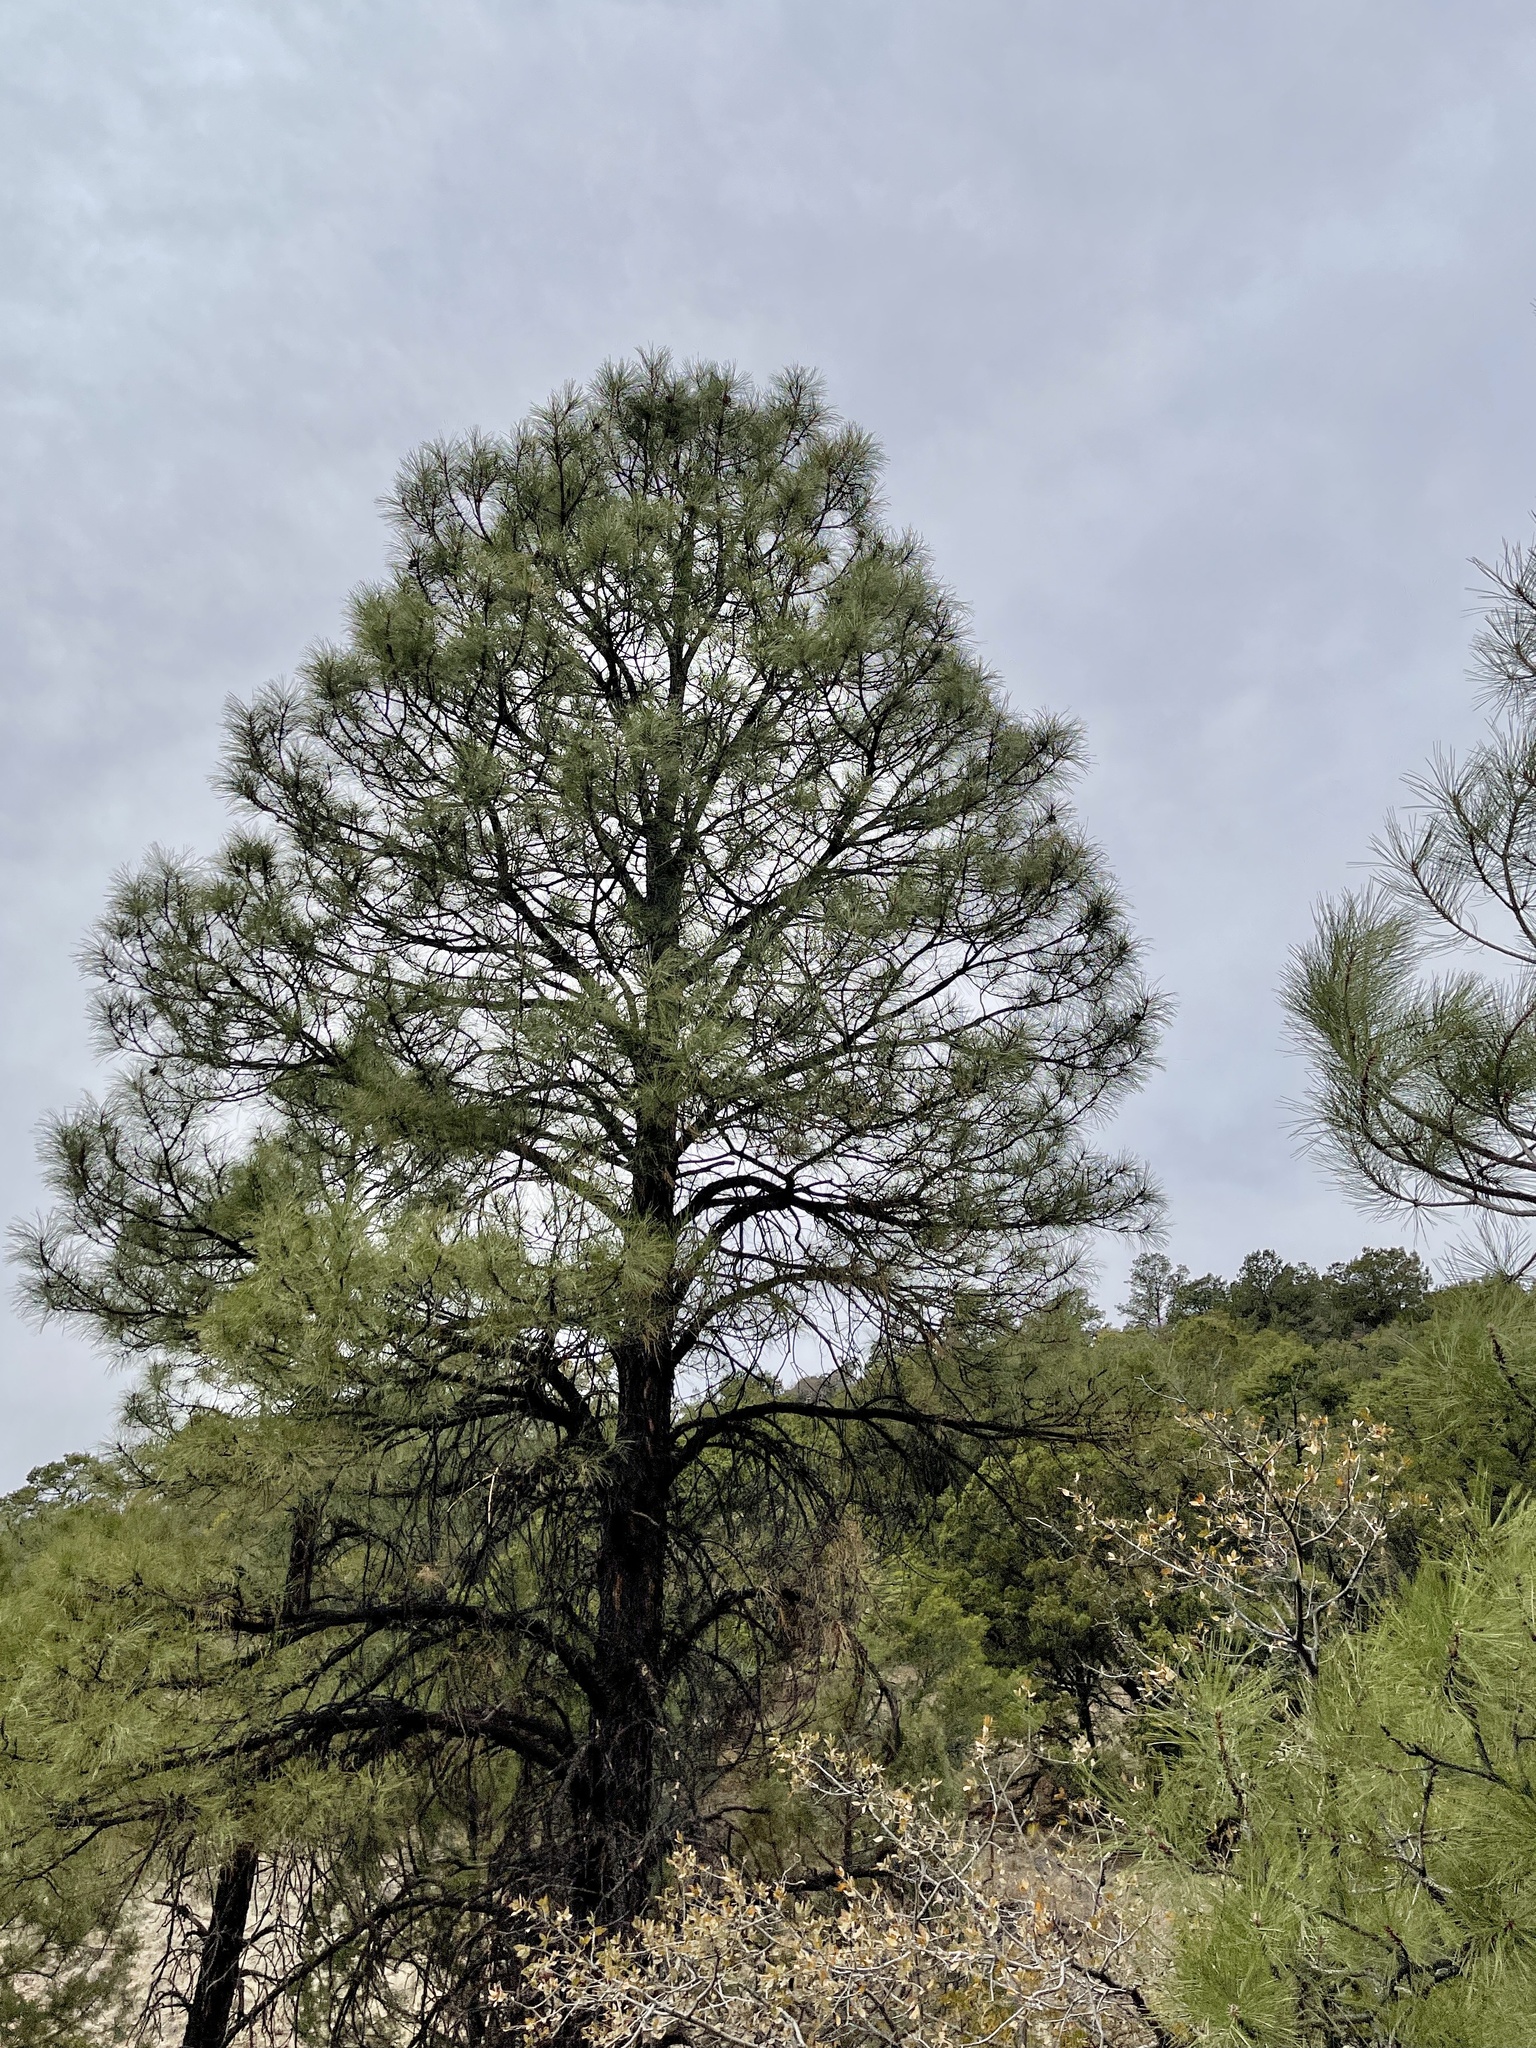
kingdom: Plantae
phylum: Tracheophyta
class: Pinopsida
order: Pinales
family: Pinaceae
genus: Pinus
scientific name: Pinus ponderosa
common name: Western yellow-pine
